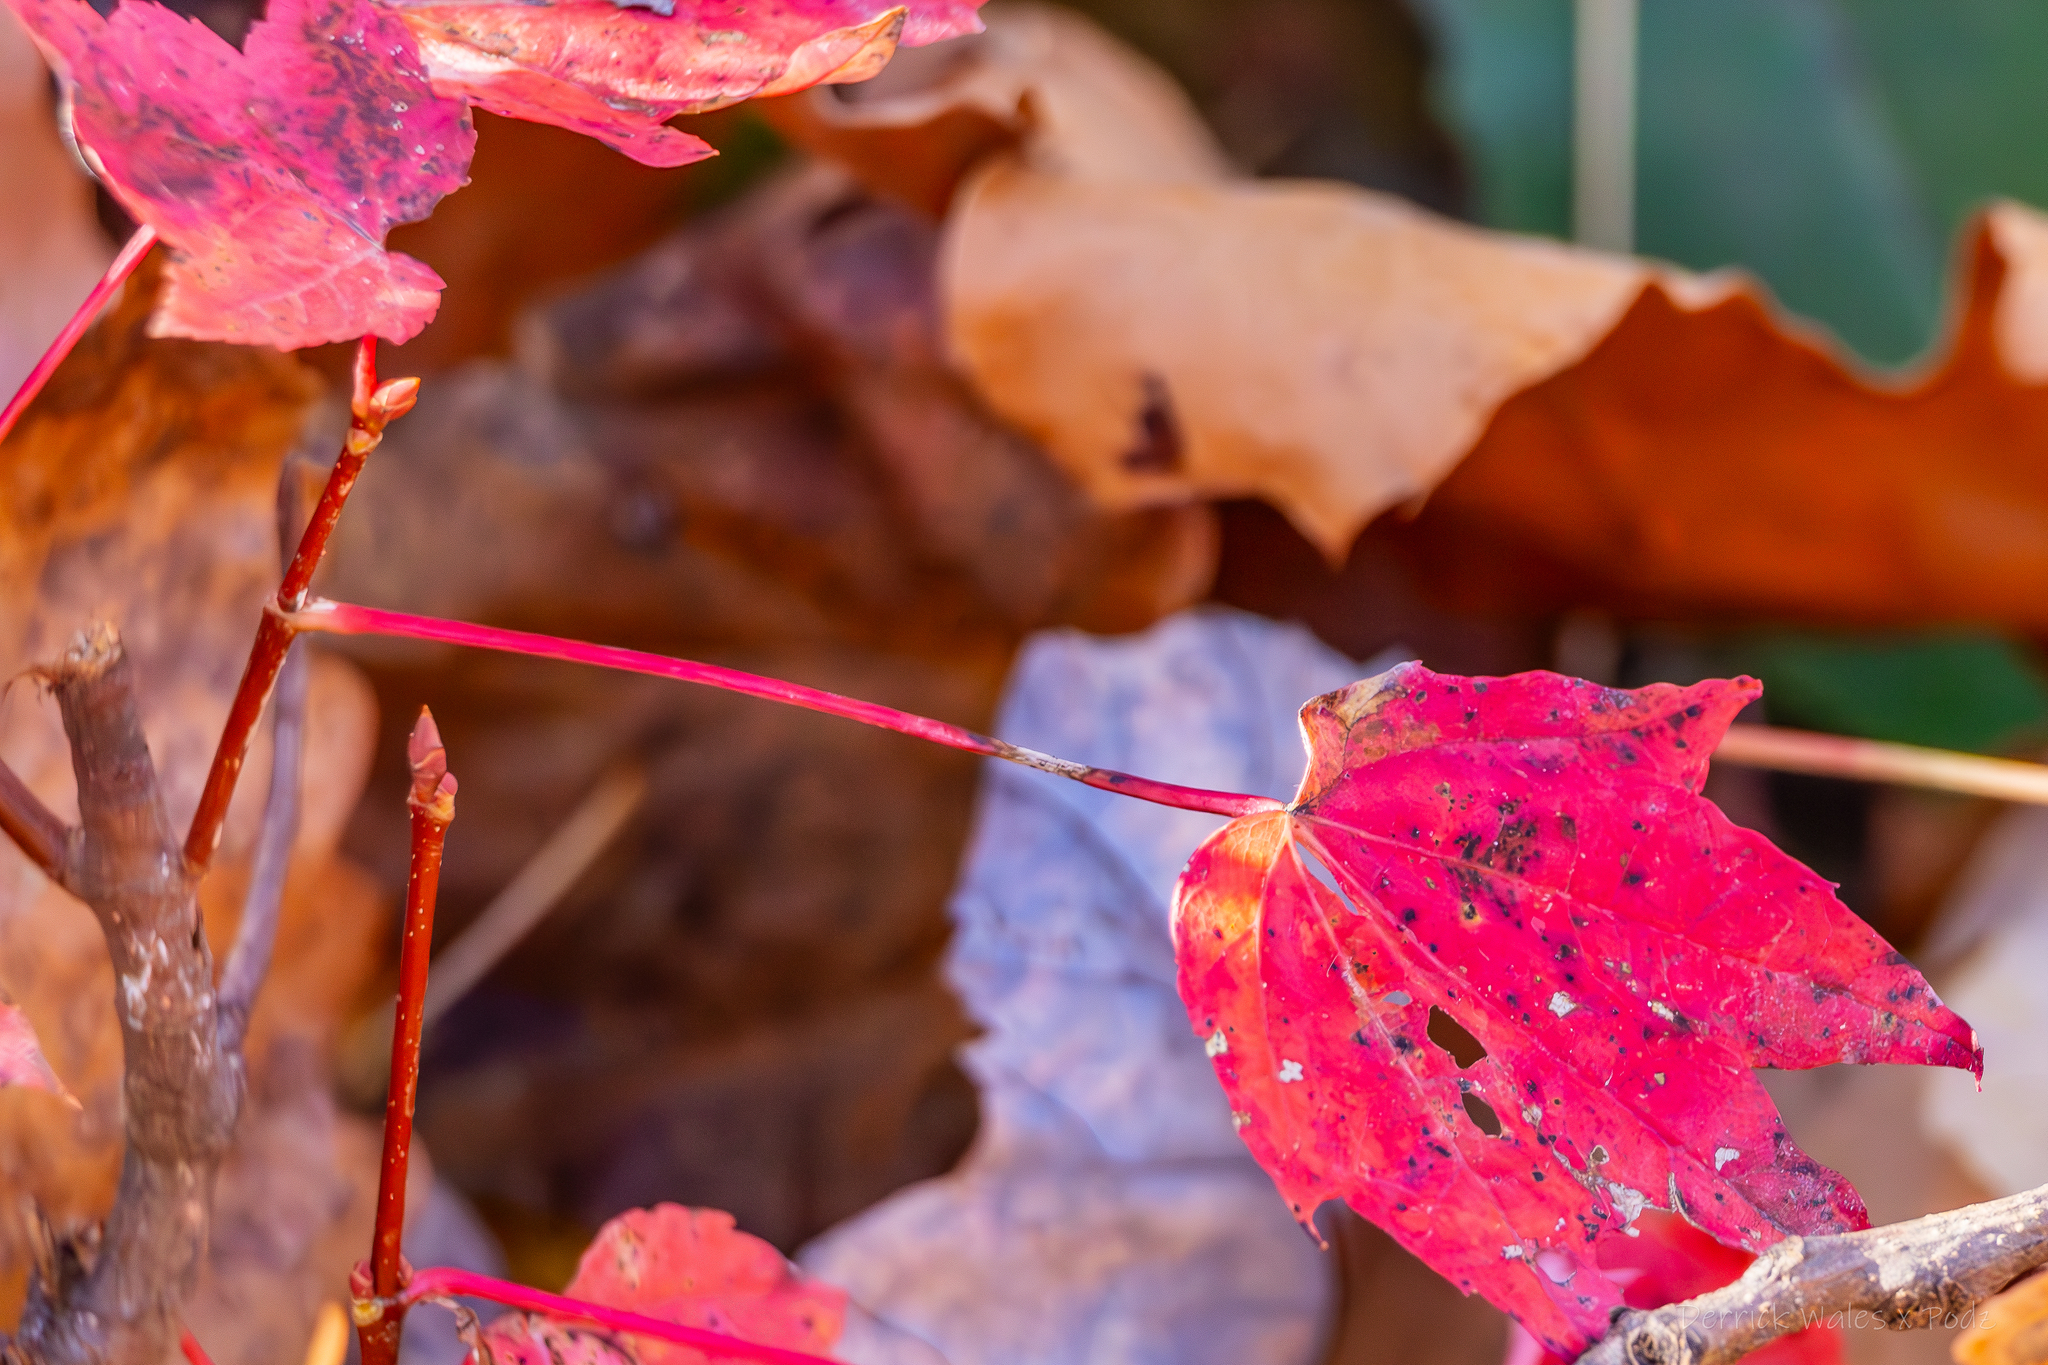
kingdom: Plantae
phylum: Tracheophyta
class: Magnoliopsida
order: Sapindales
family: Sapindaceae
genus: Acer
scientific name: Acer rubrum
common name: Red maple
